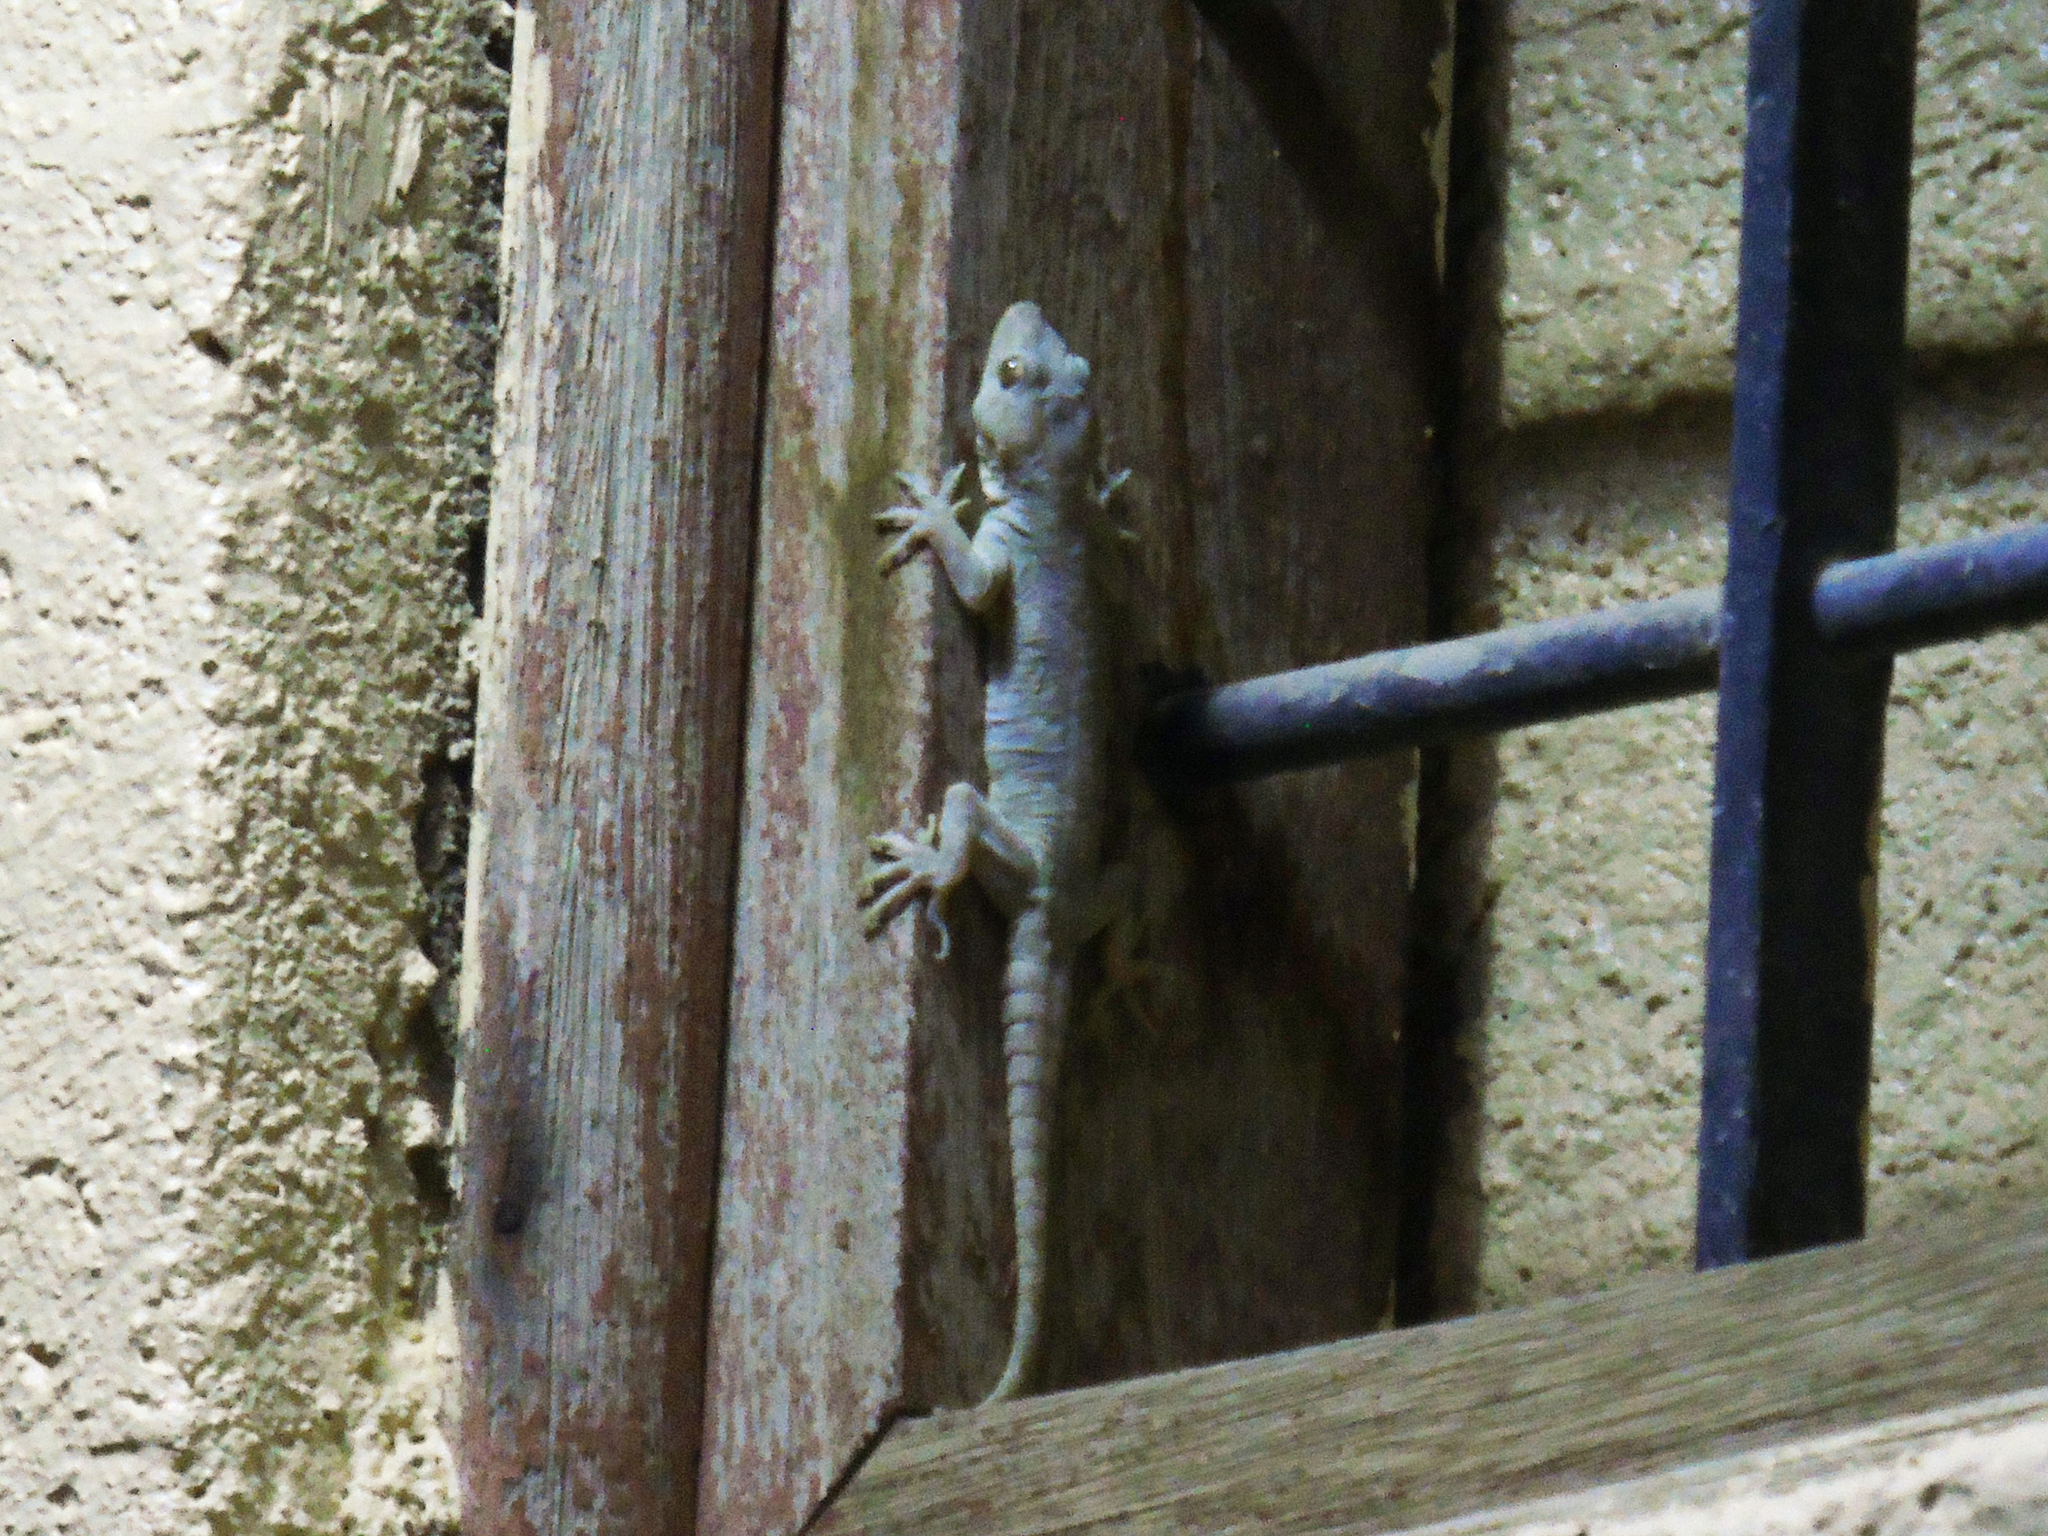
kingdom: Animalia
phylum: Chordata
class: Squamata
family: Gekkonidae
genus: Hemidactylus
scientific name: Hemidactylus flaviviridis
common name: Northern house gecko
